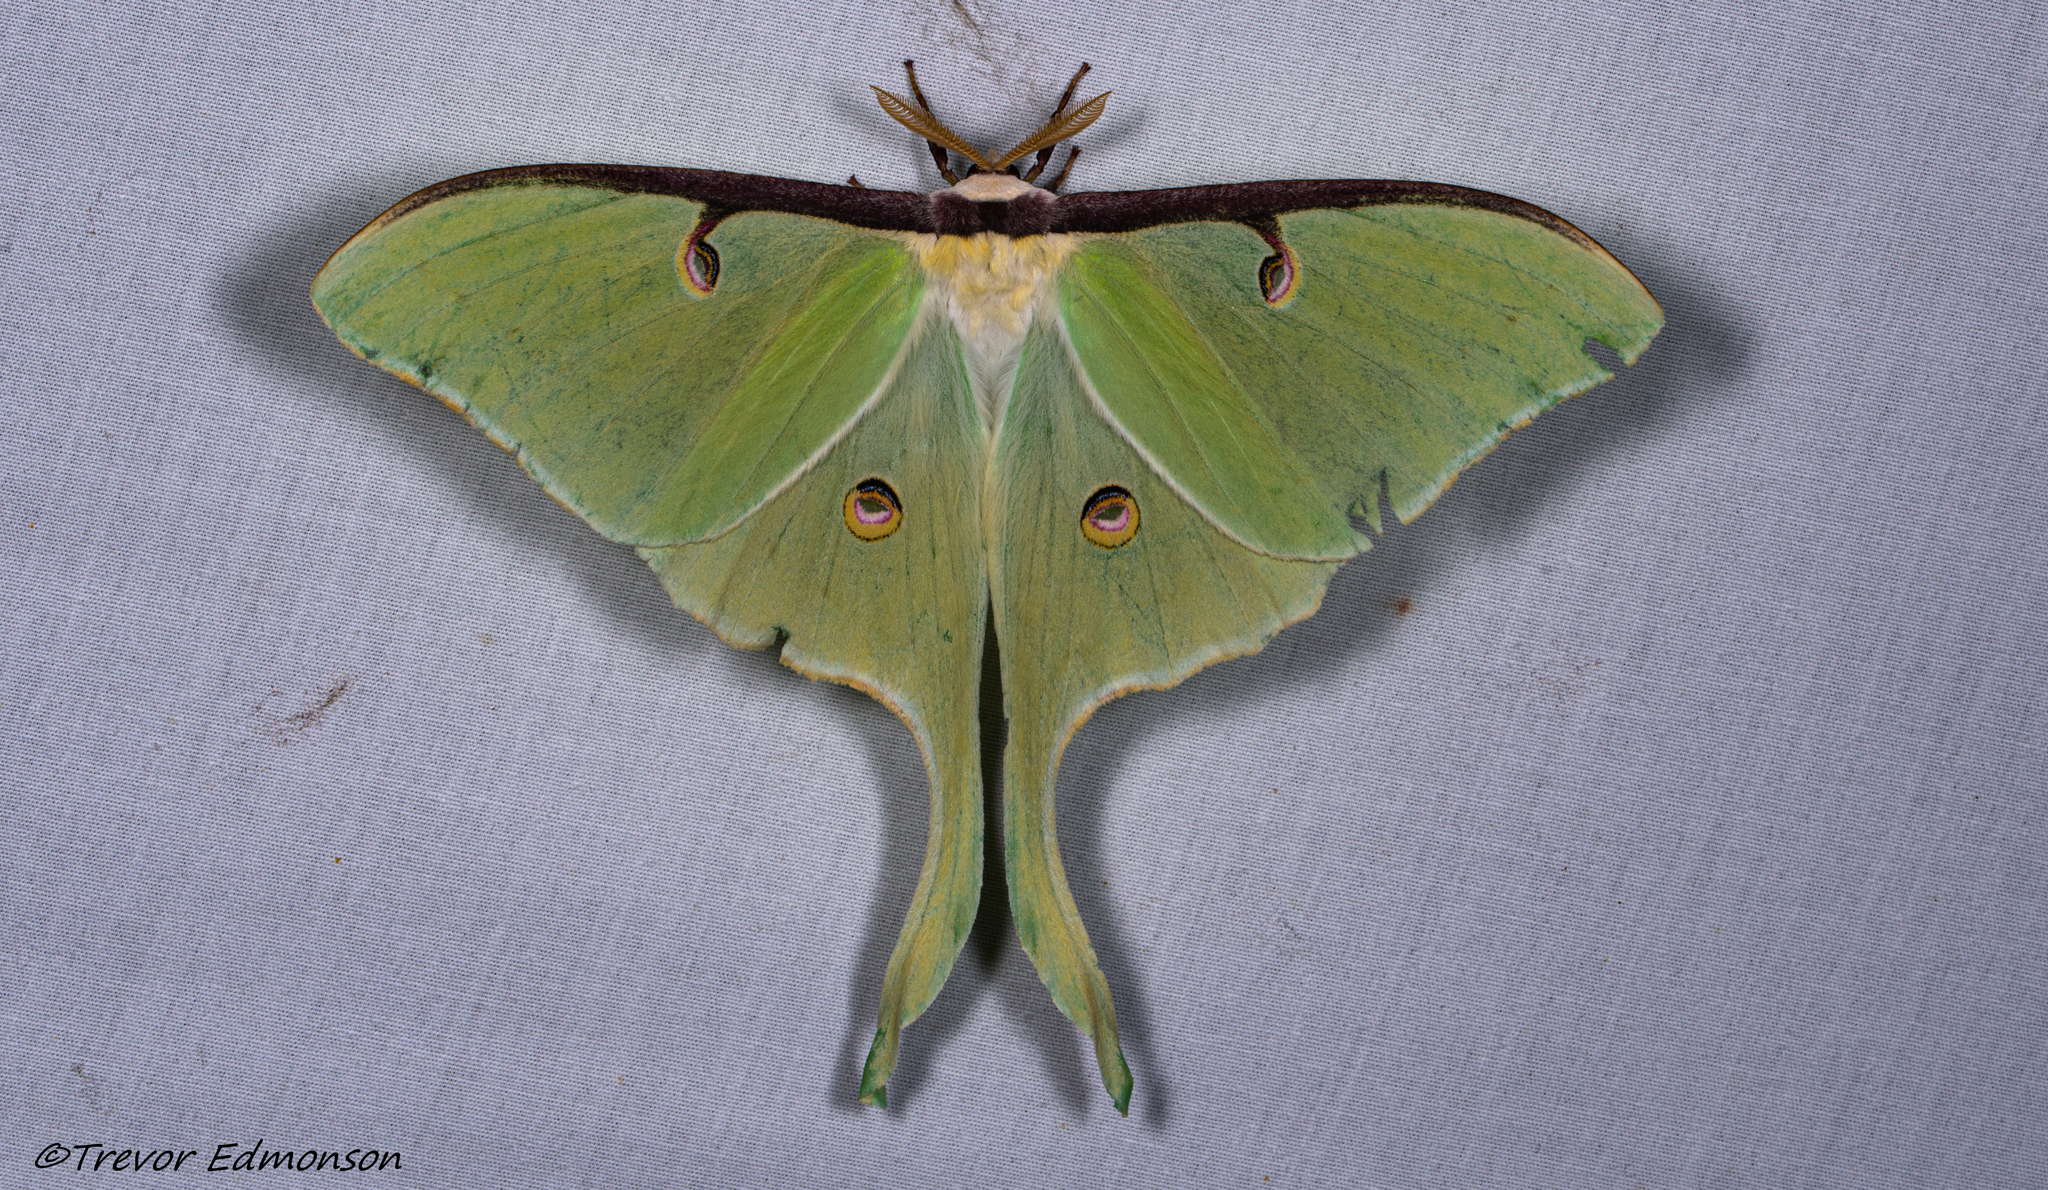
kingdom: Animalia
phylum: Arthropoda
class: Insecta
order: Lepidoptera
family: Saturniidae
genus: Actias
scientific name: Actias luna
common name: Luna moth
